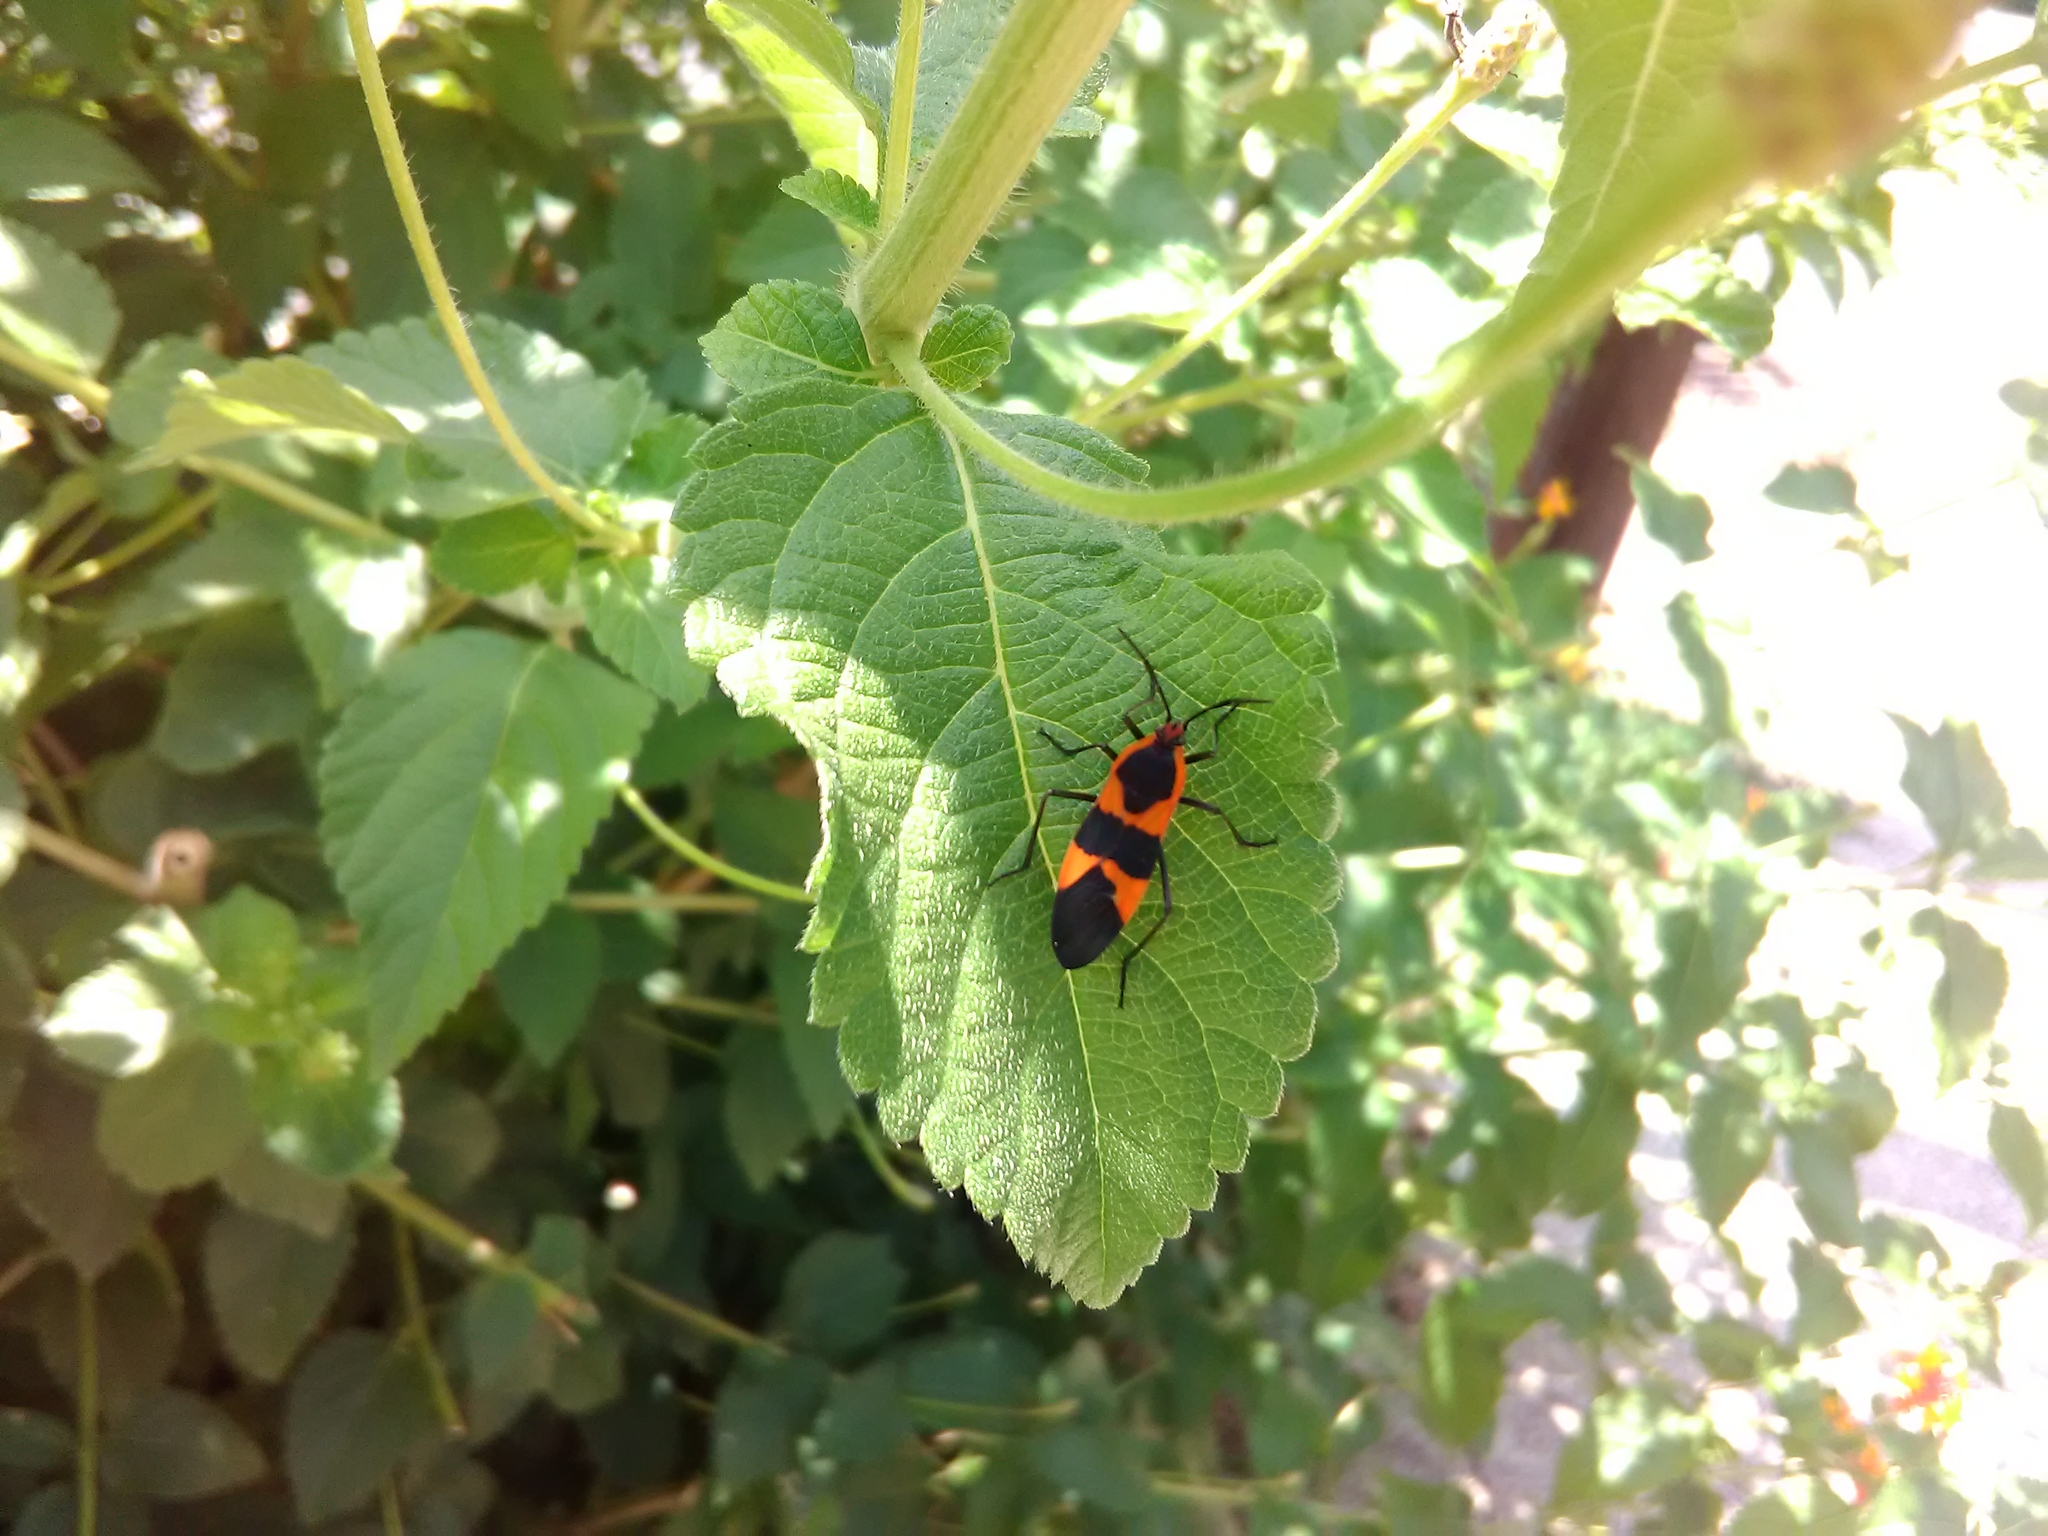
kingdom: Animalia
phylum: Arthropoda
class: Insecta
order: Hemiptera
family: Lygaeidae
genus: Oncopeltus
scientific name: Oncopeltus fasciatus
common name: Large milkweed bug
